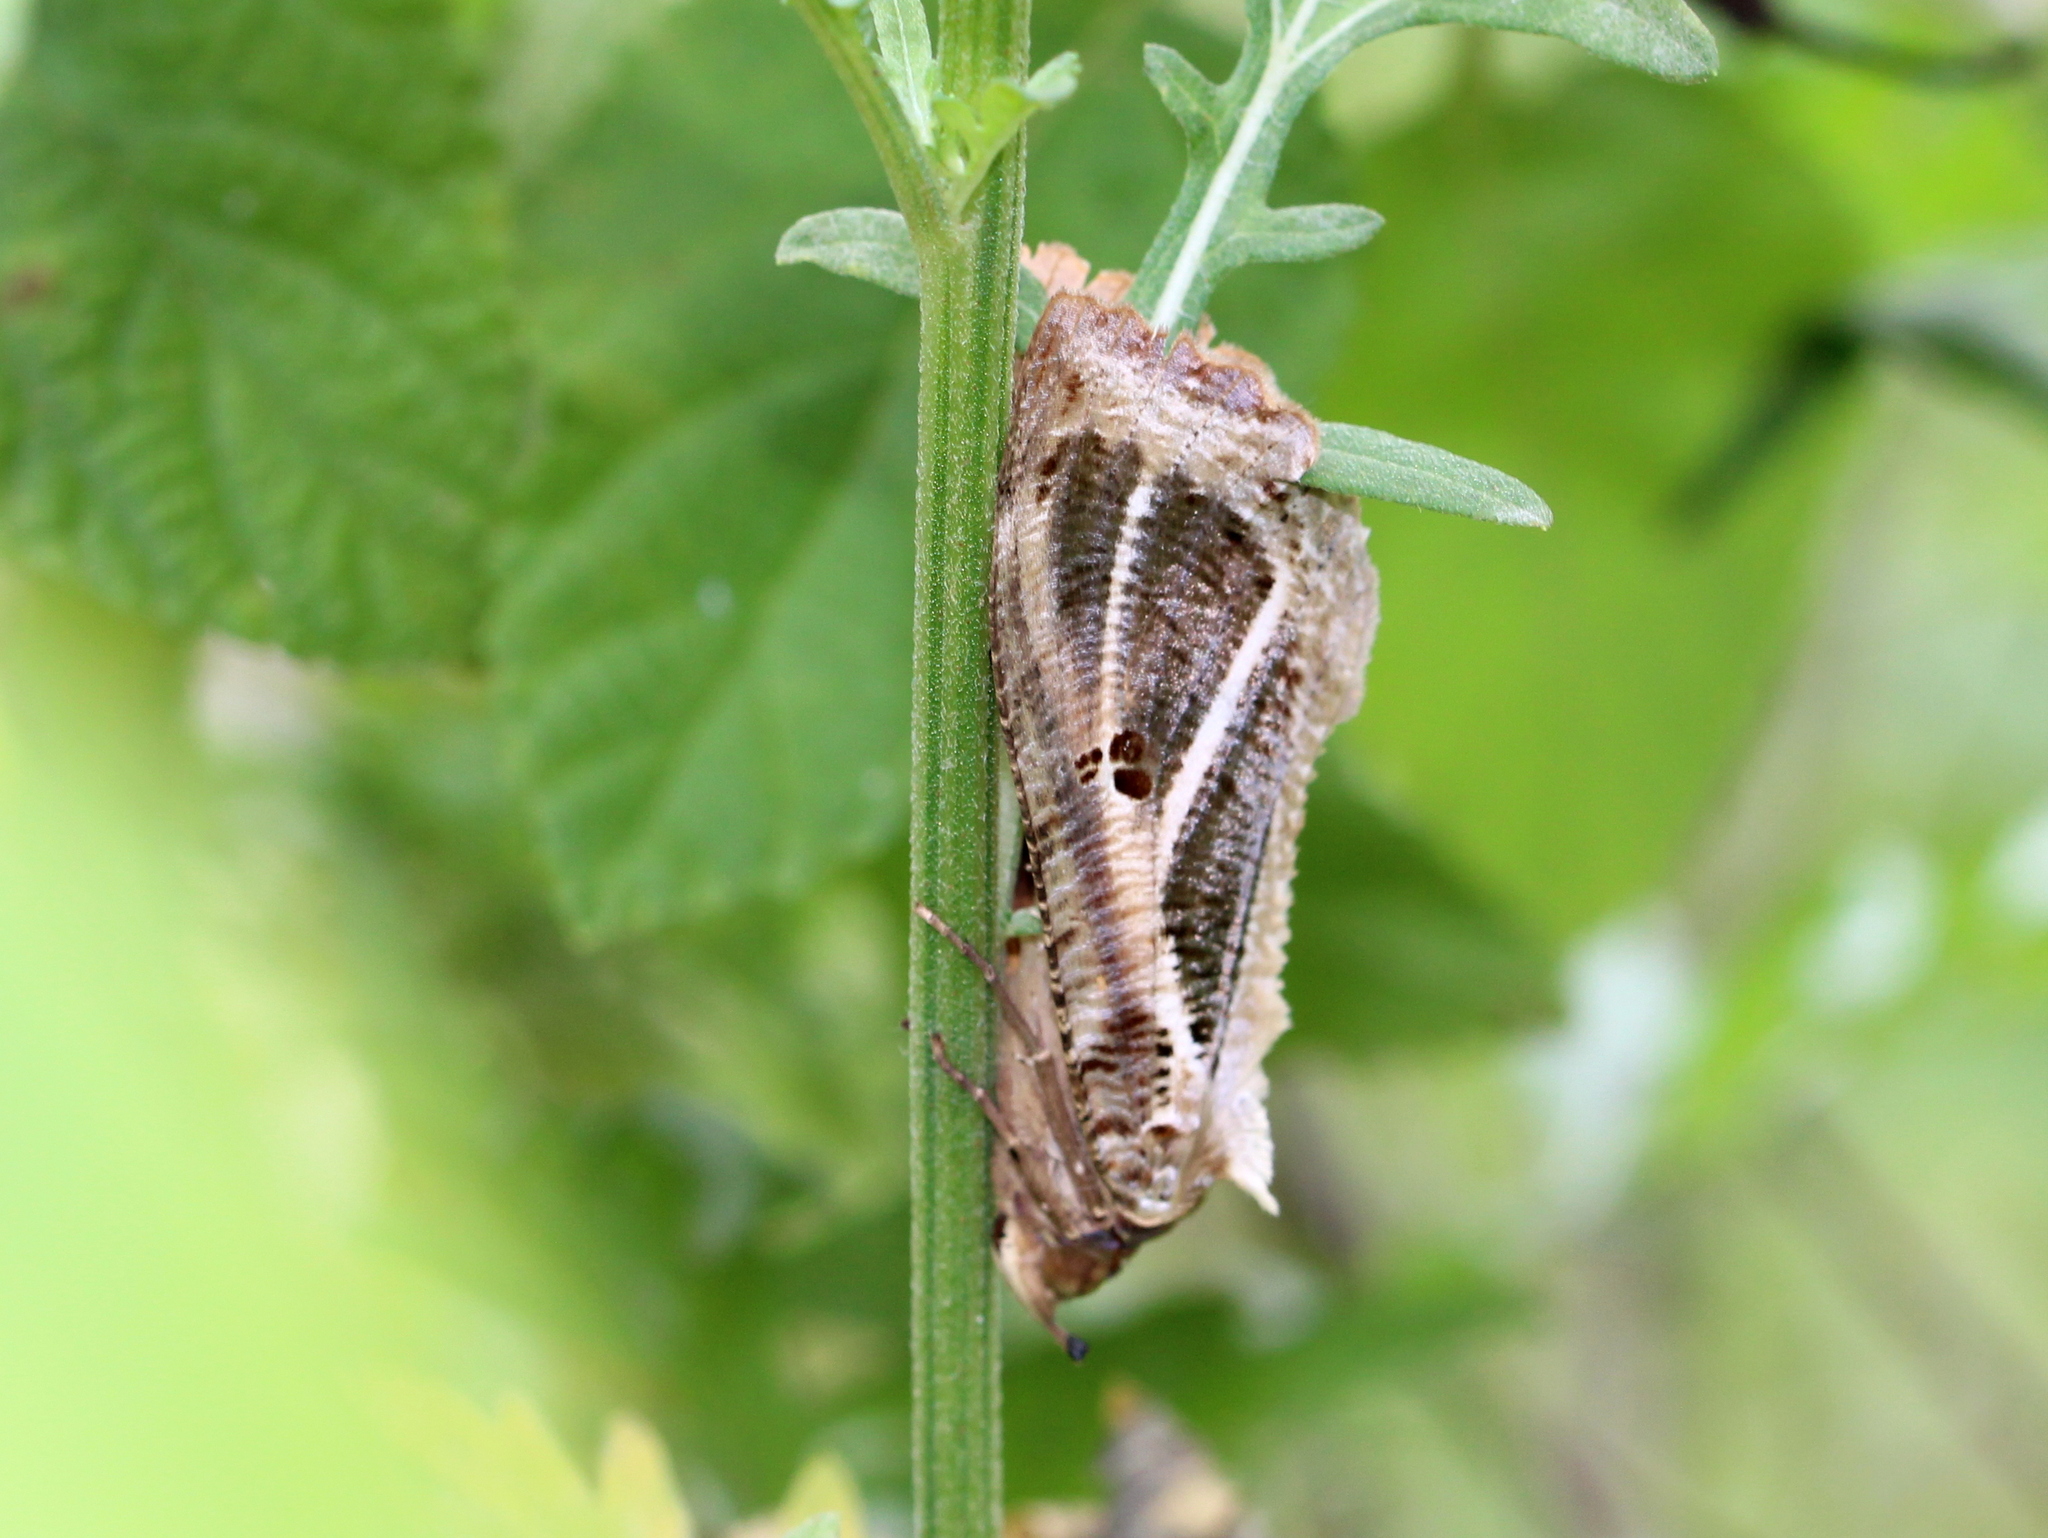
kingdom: Animalia
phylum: Arthropoda
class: Insecta
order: Lepidoptera
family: Erebidae
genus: Eudocima
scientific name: Eudocima materna
